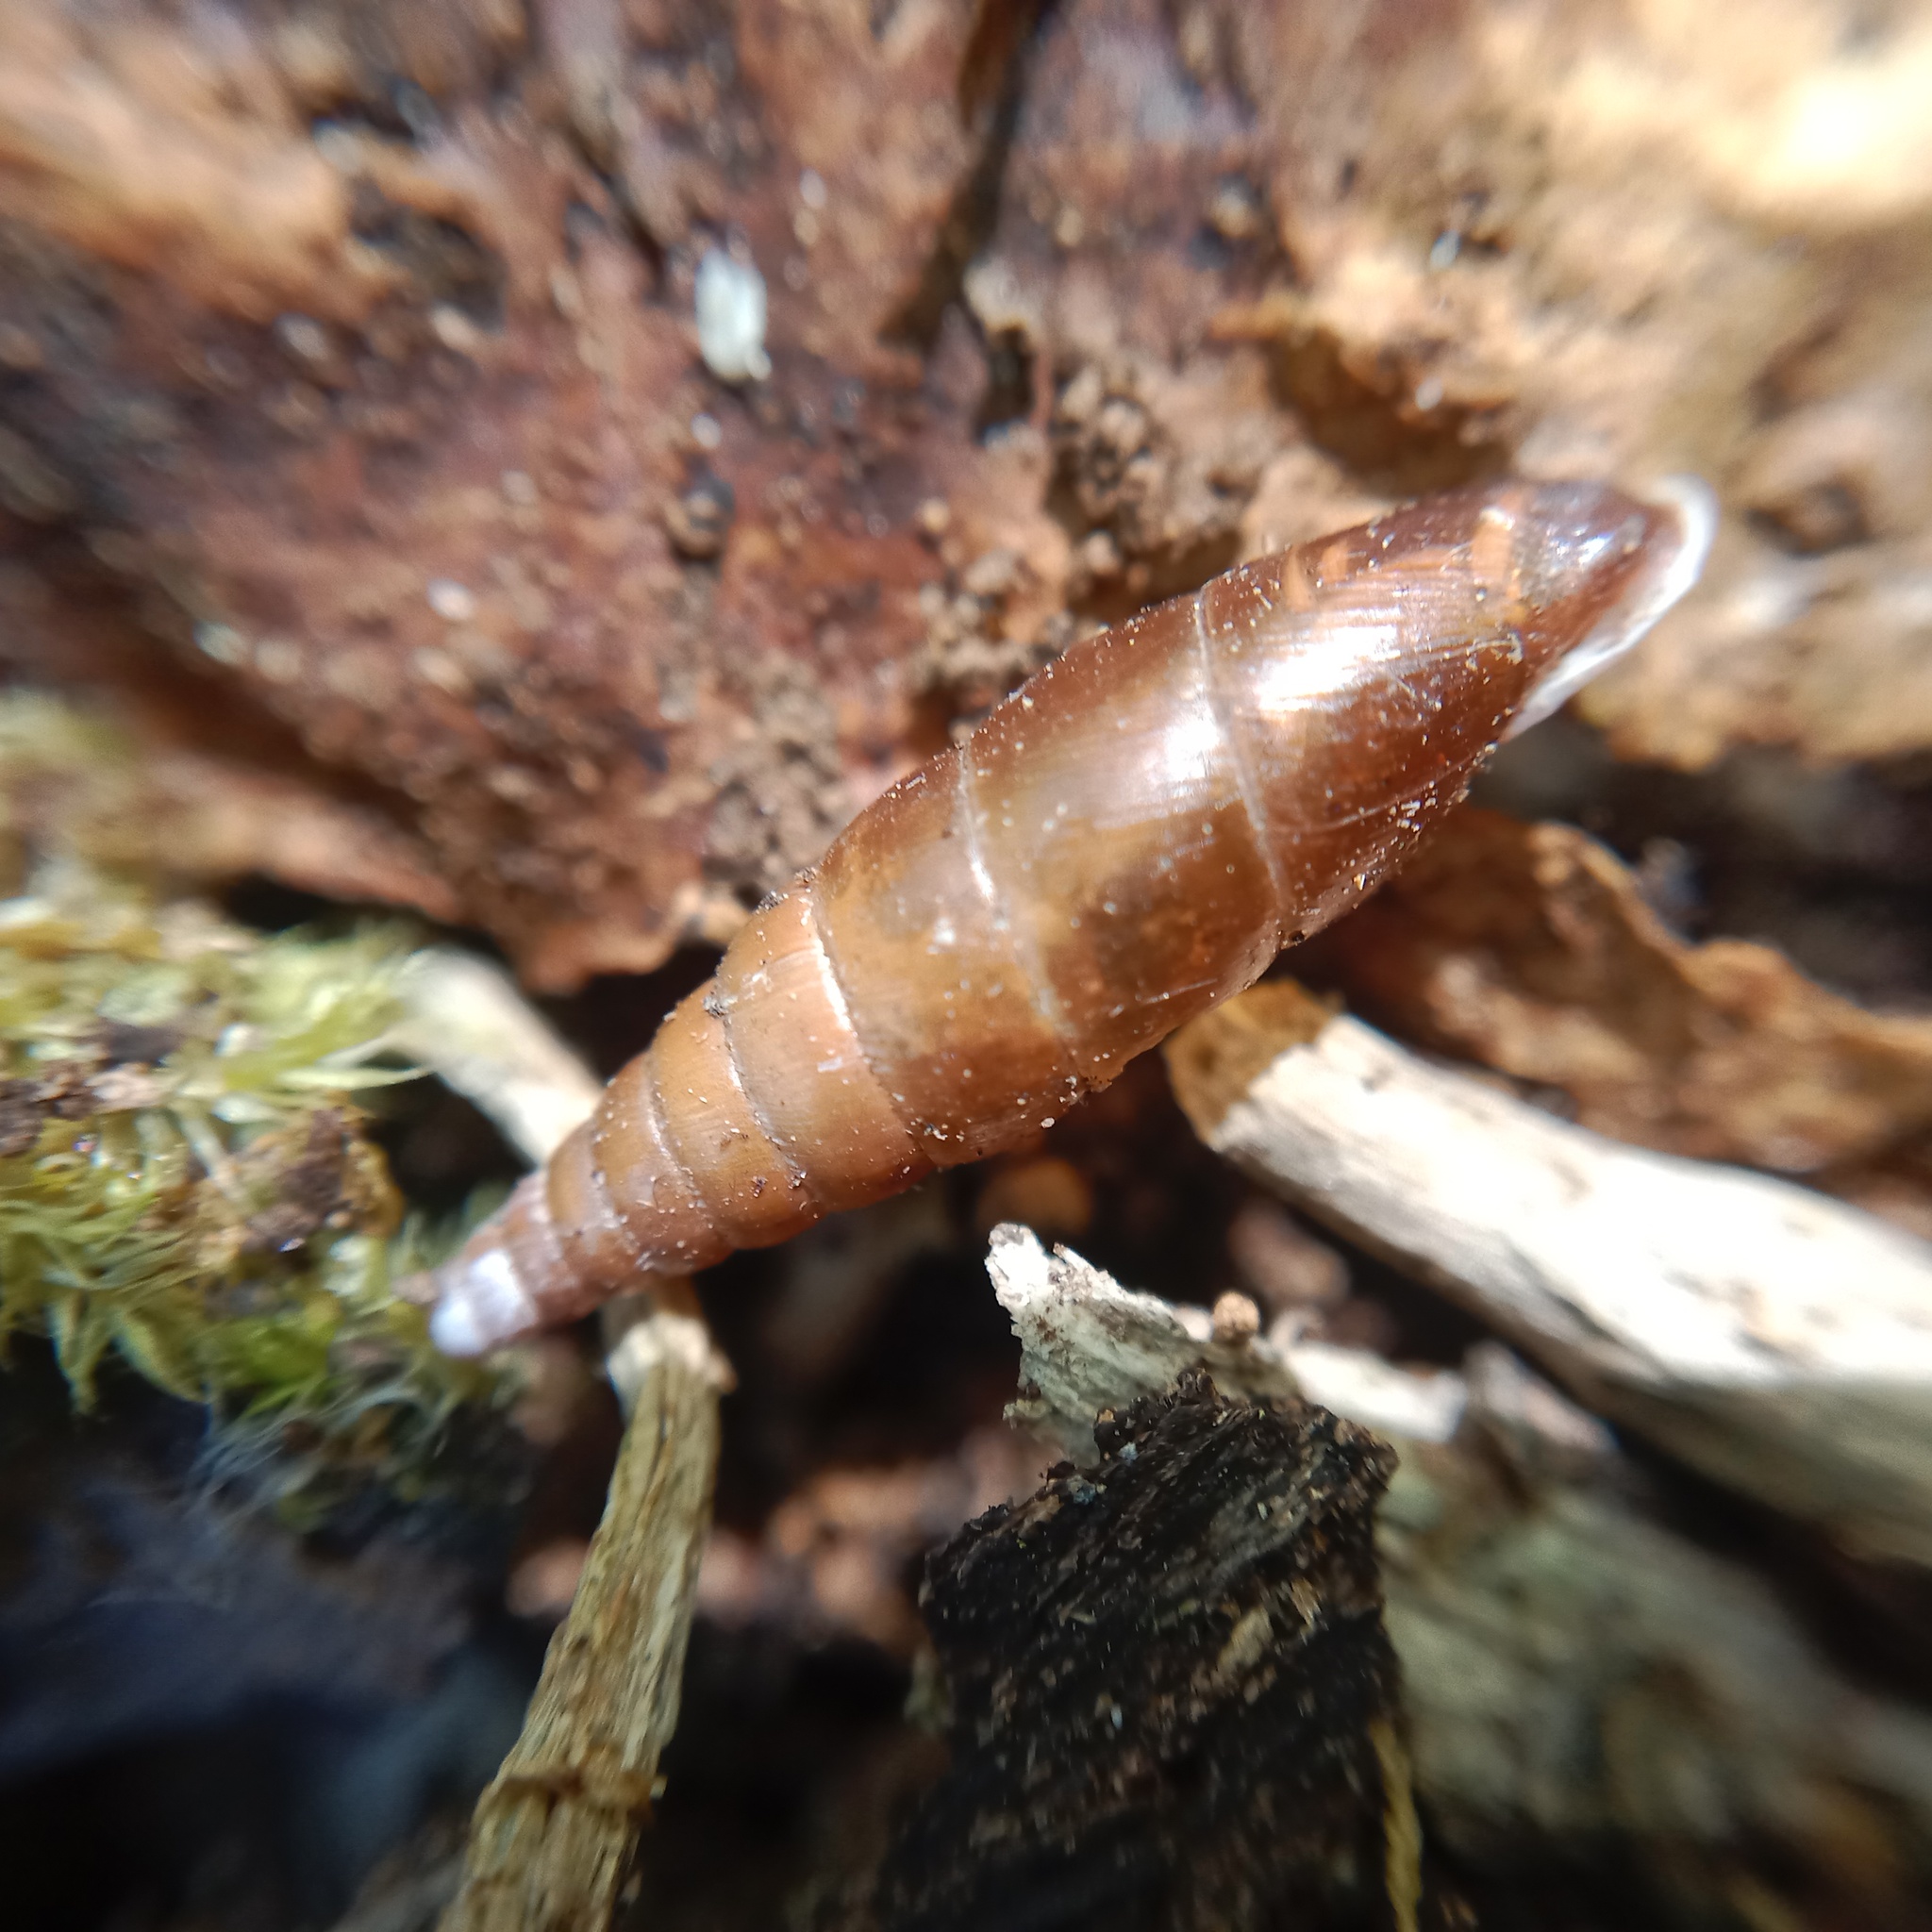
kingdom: Animalia
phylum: Mollusca
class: Gastropoda
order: Stylommatophora
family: Clausiliidae
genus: Cochlodina
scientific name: Cochlodina laminata
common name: Plaited door snail
